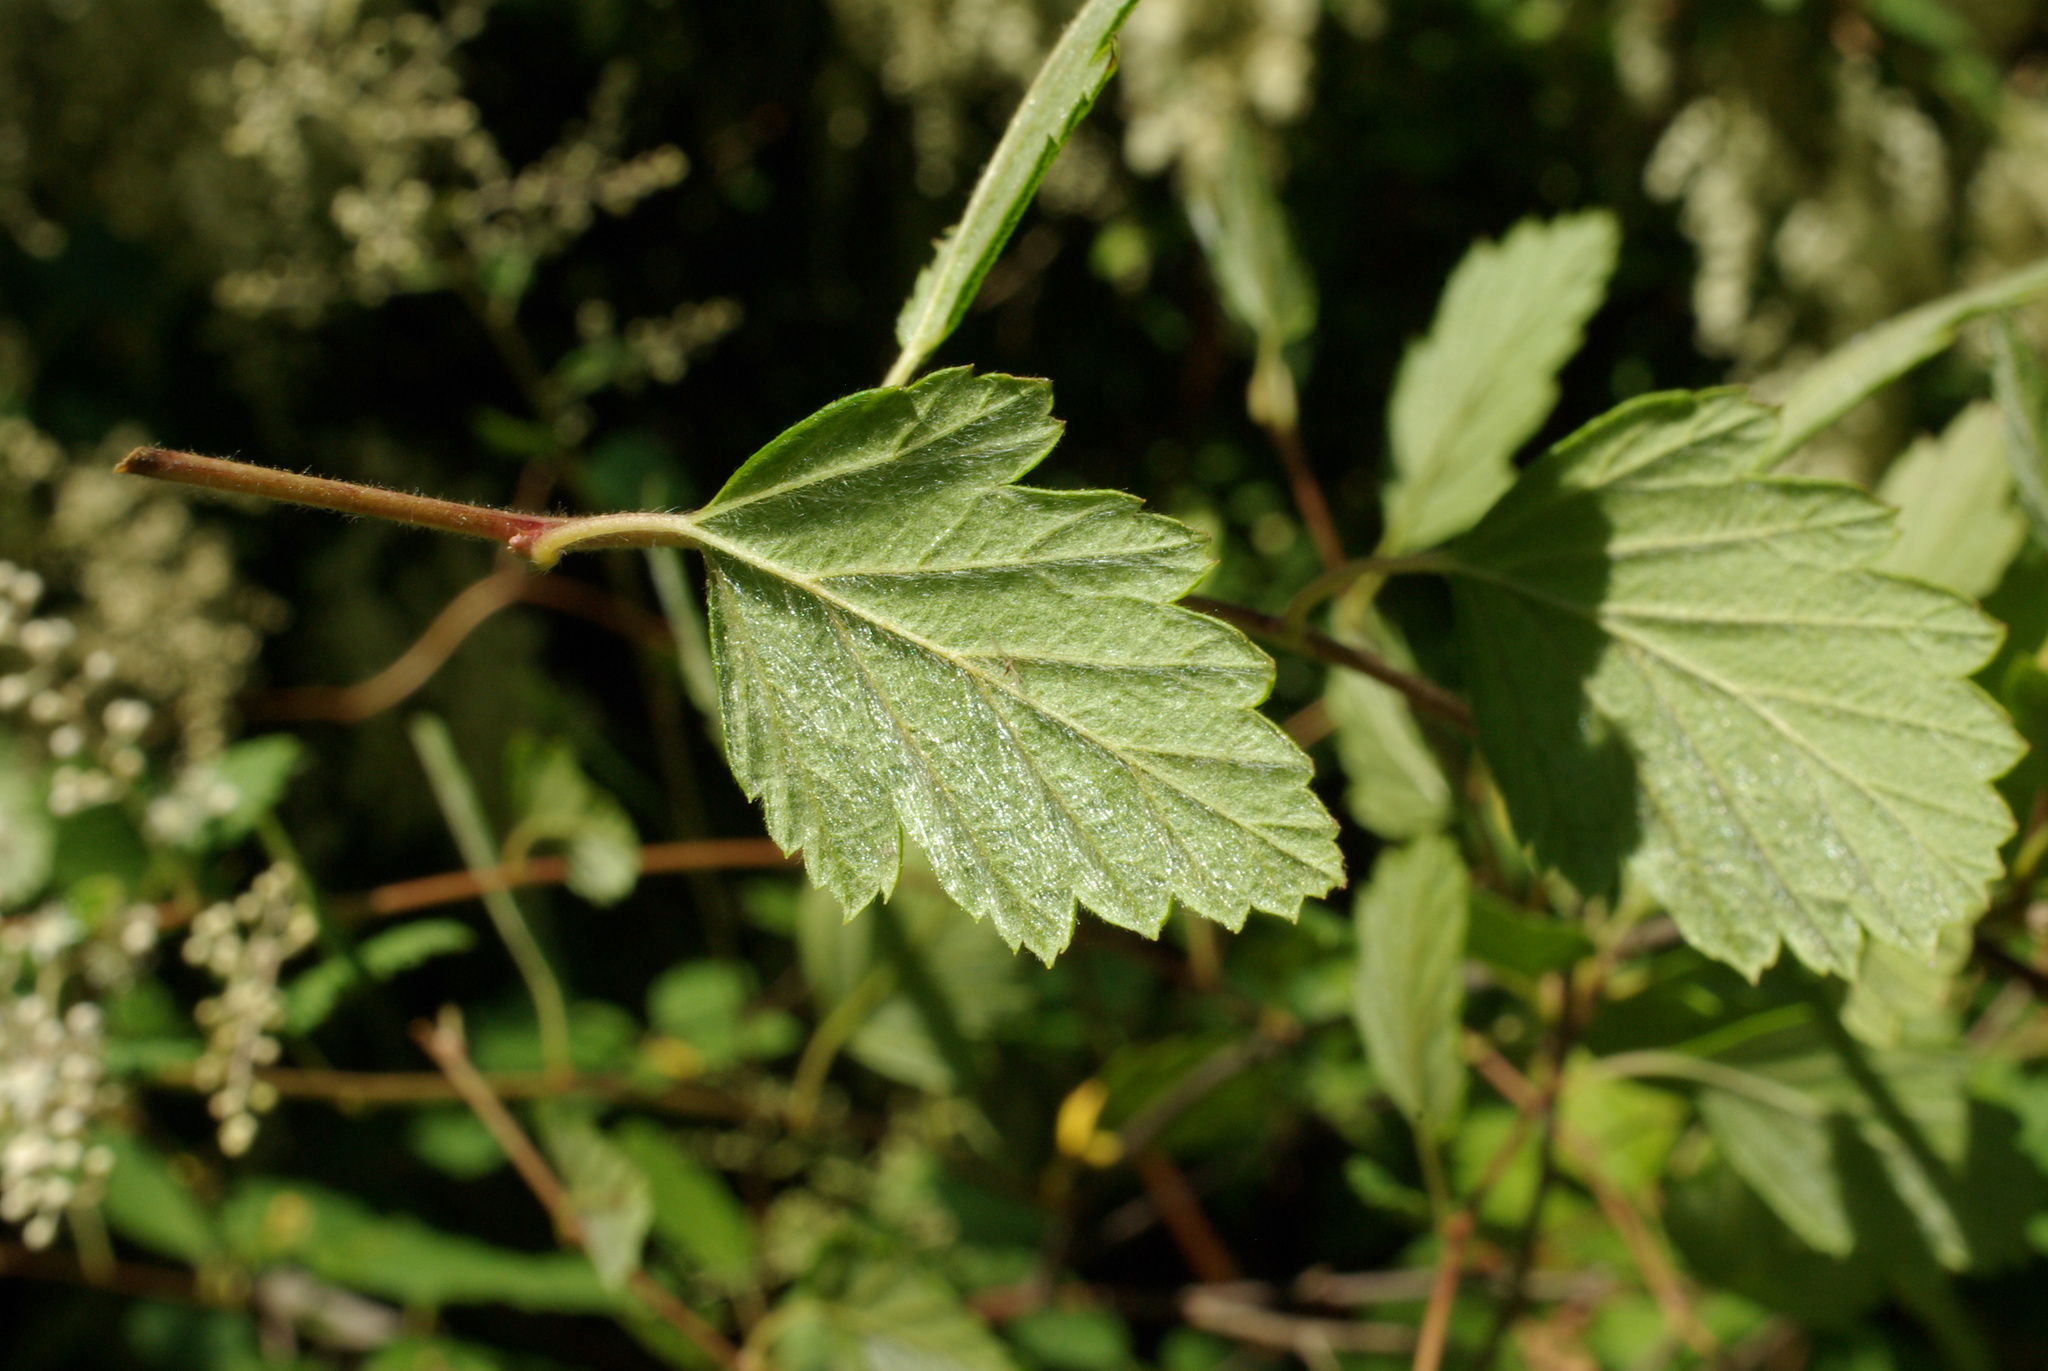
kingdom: Plantae
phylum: Tracheophyta
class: Magnoliopsida
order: Rosales
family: Rosaceae
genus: Holodiscus
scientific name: Holodiscus discolor
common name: Oceanspray
